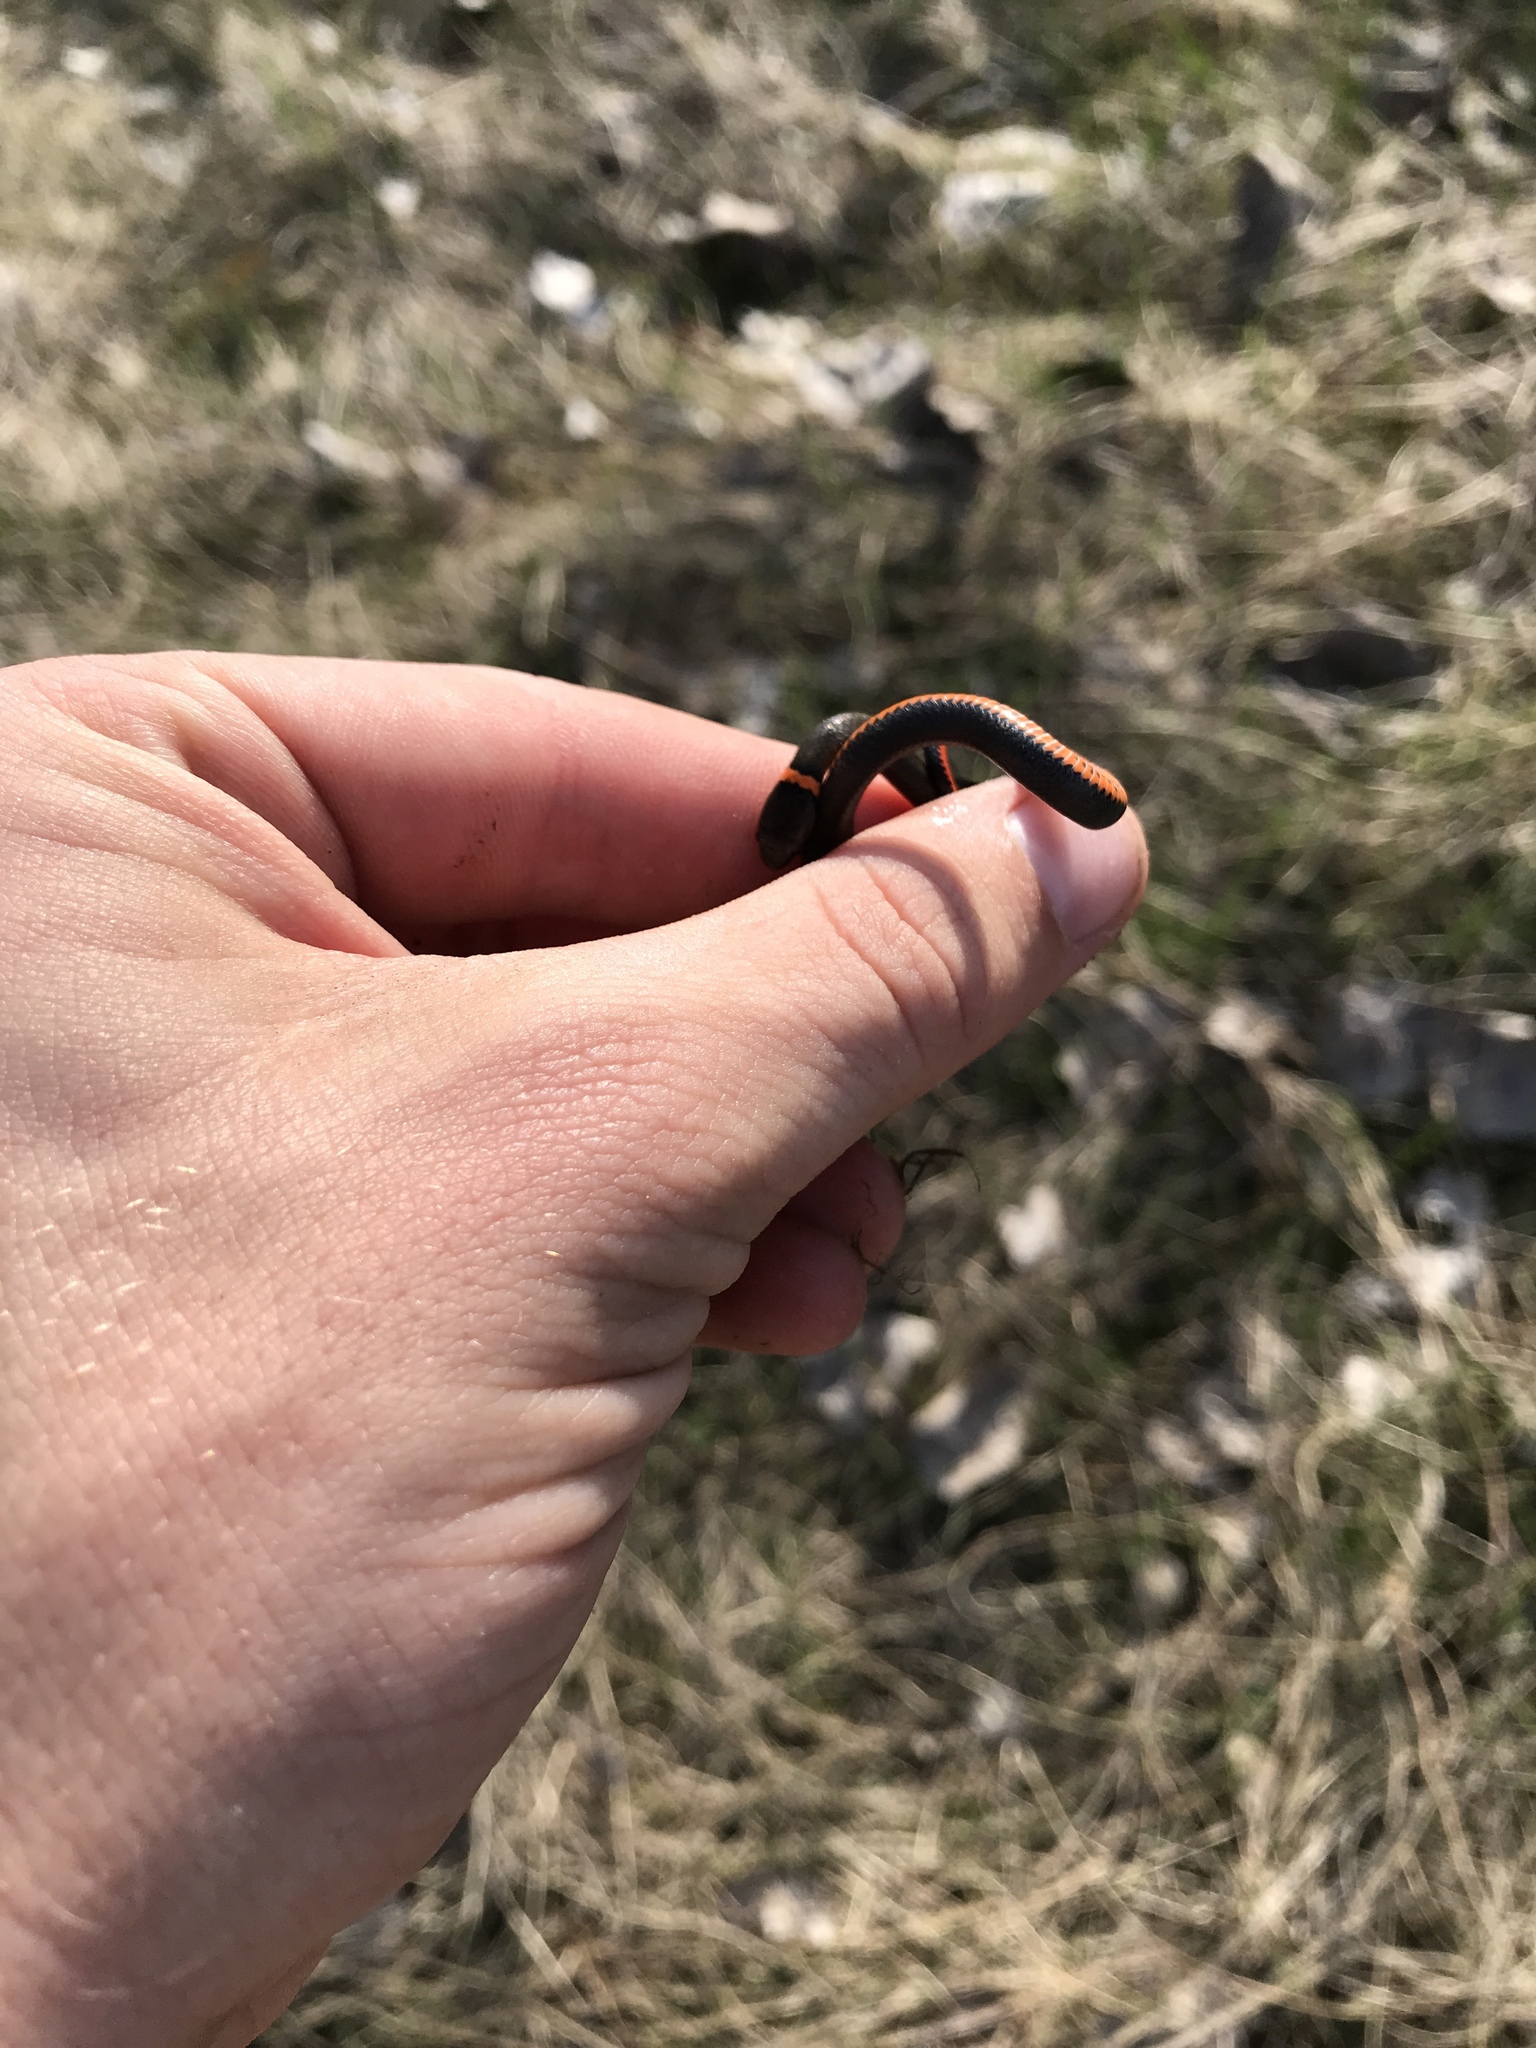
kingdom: Animalia
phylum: Chordata
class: Squamata
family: Colubridae
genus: Diadophis
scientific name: Diadophis punctatus
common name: Ringneck snake
